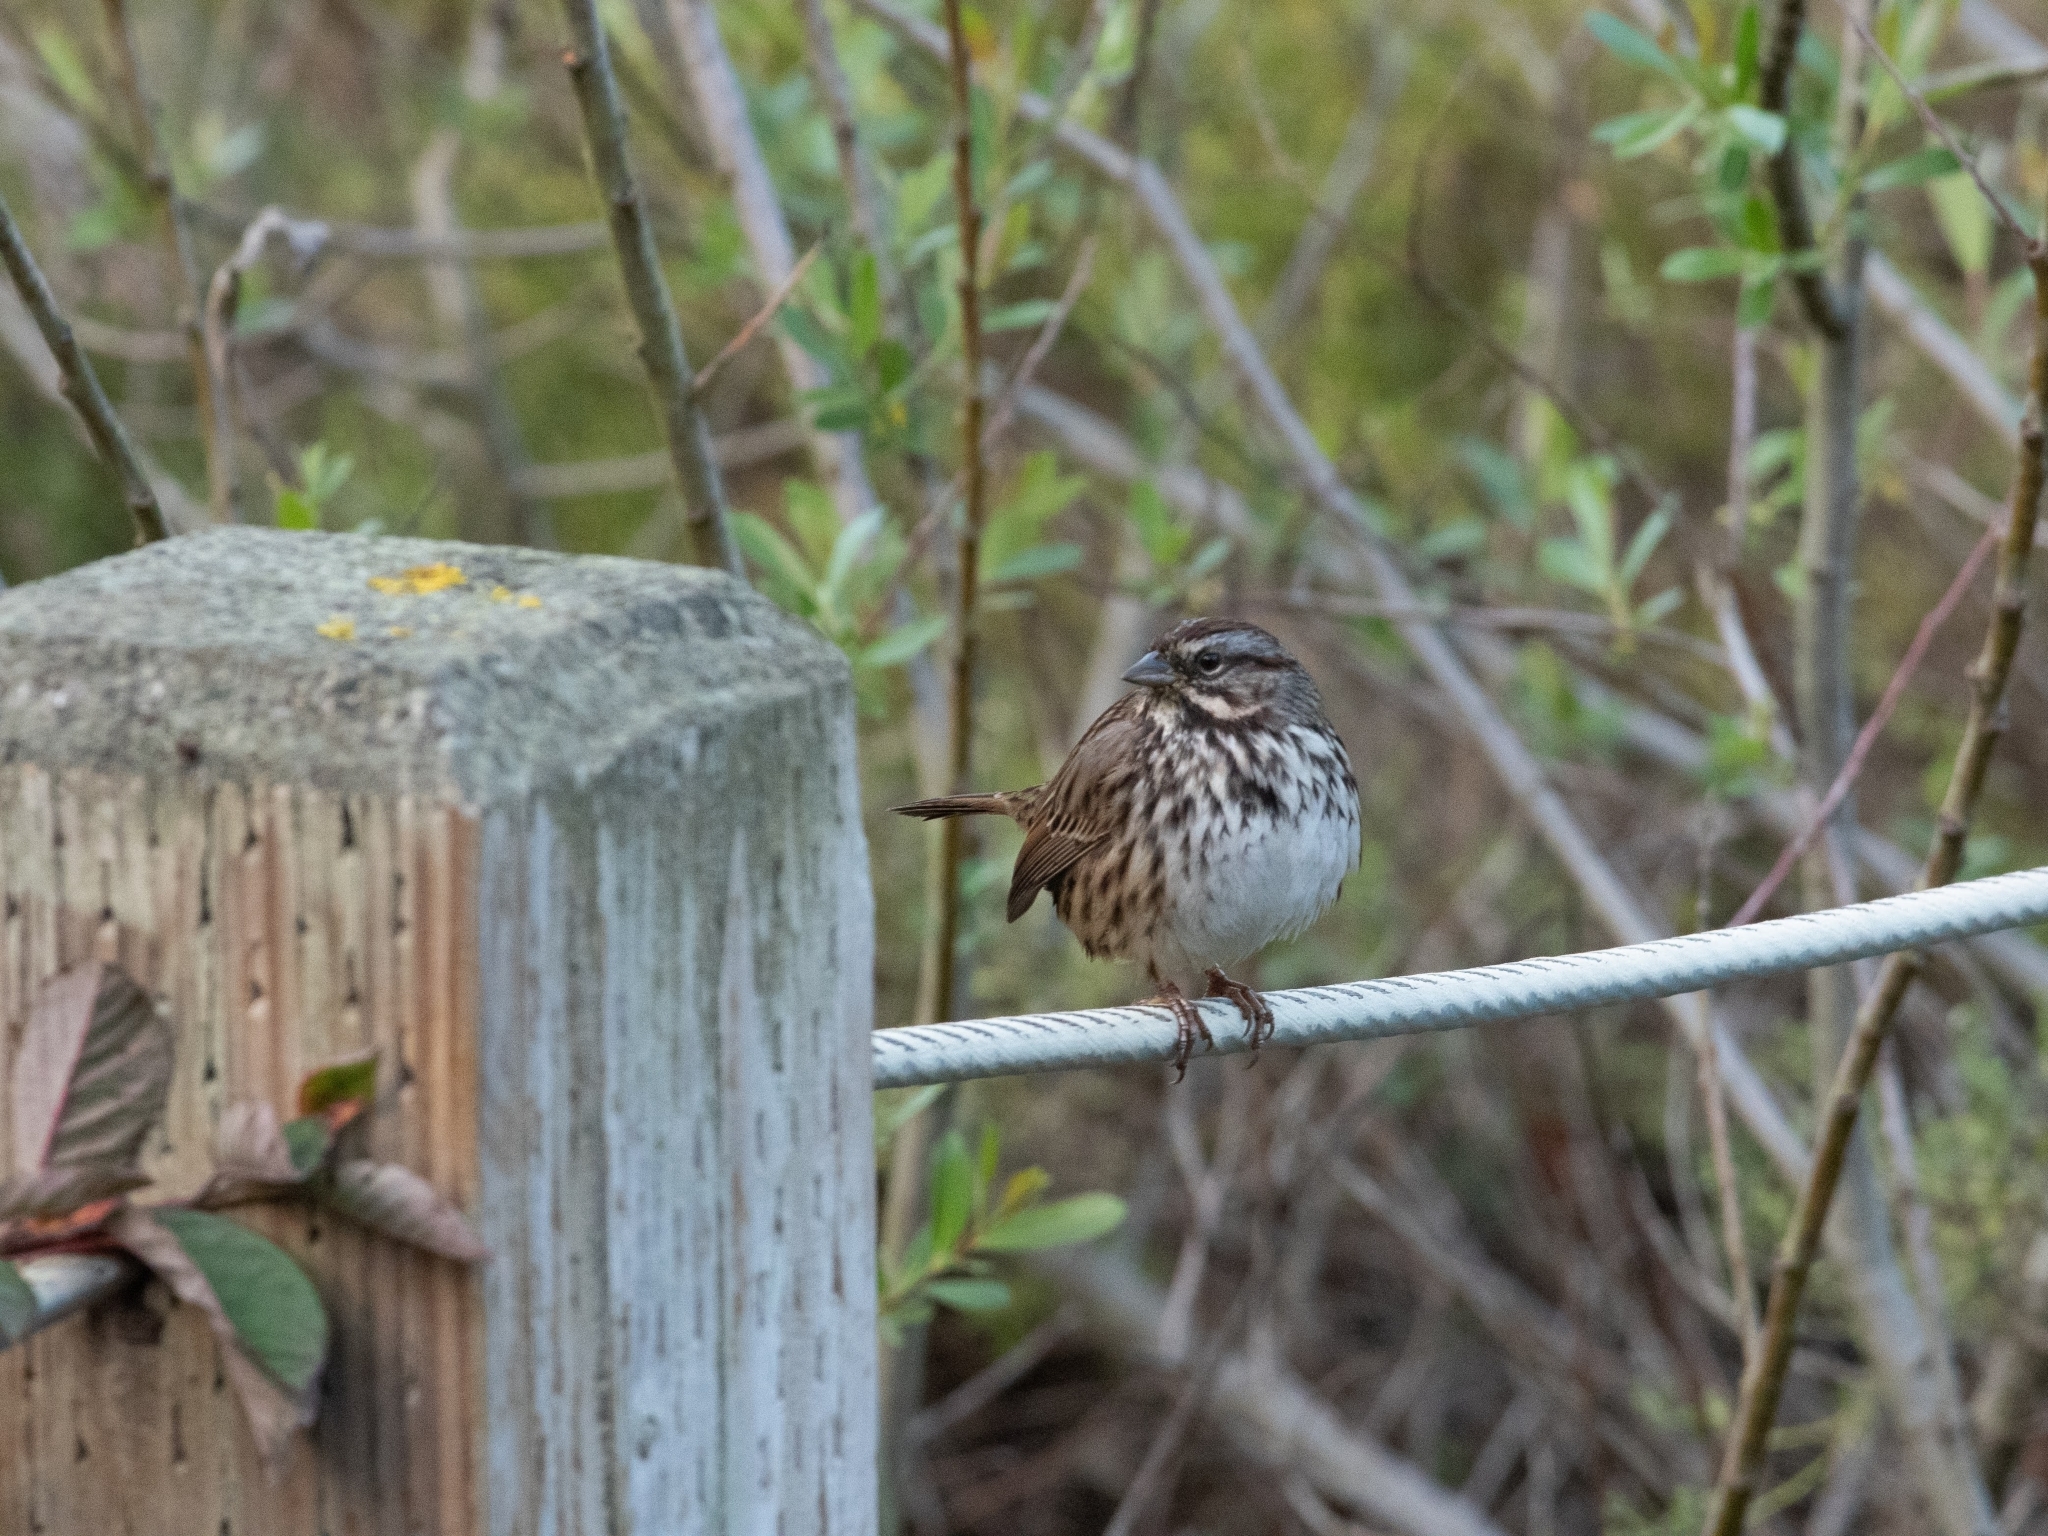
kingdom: Animalia
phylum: Chordata
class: Aves
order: Passeriformes
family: Passerellidae
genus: Melospiza
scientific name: Melospiza melodia
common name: Song sparrow
